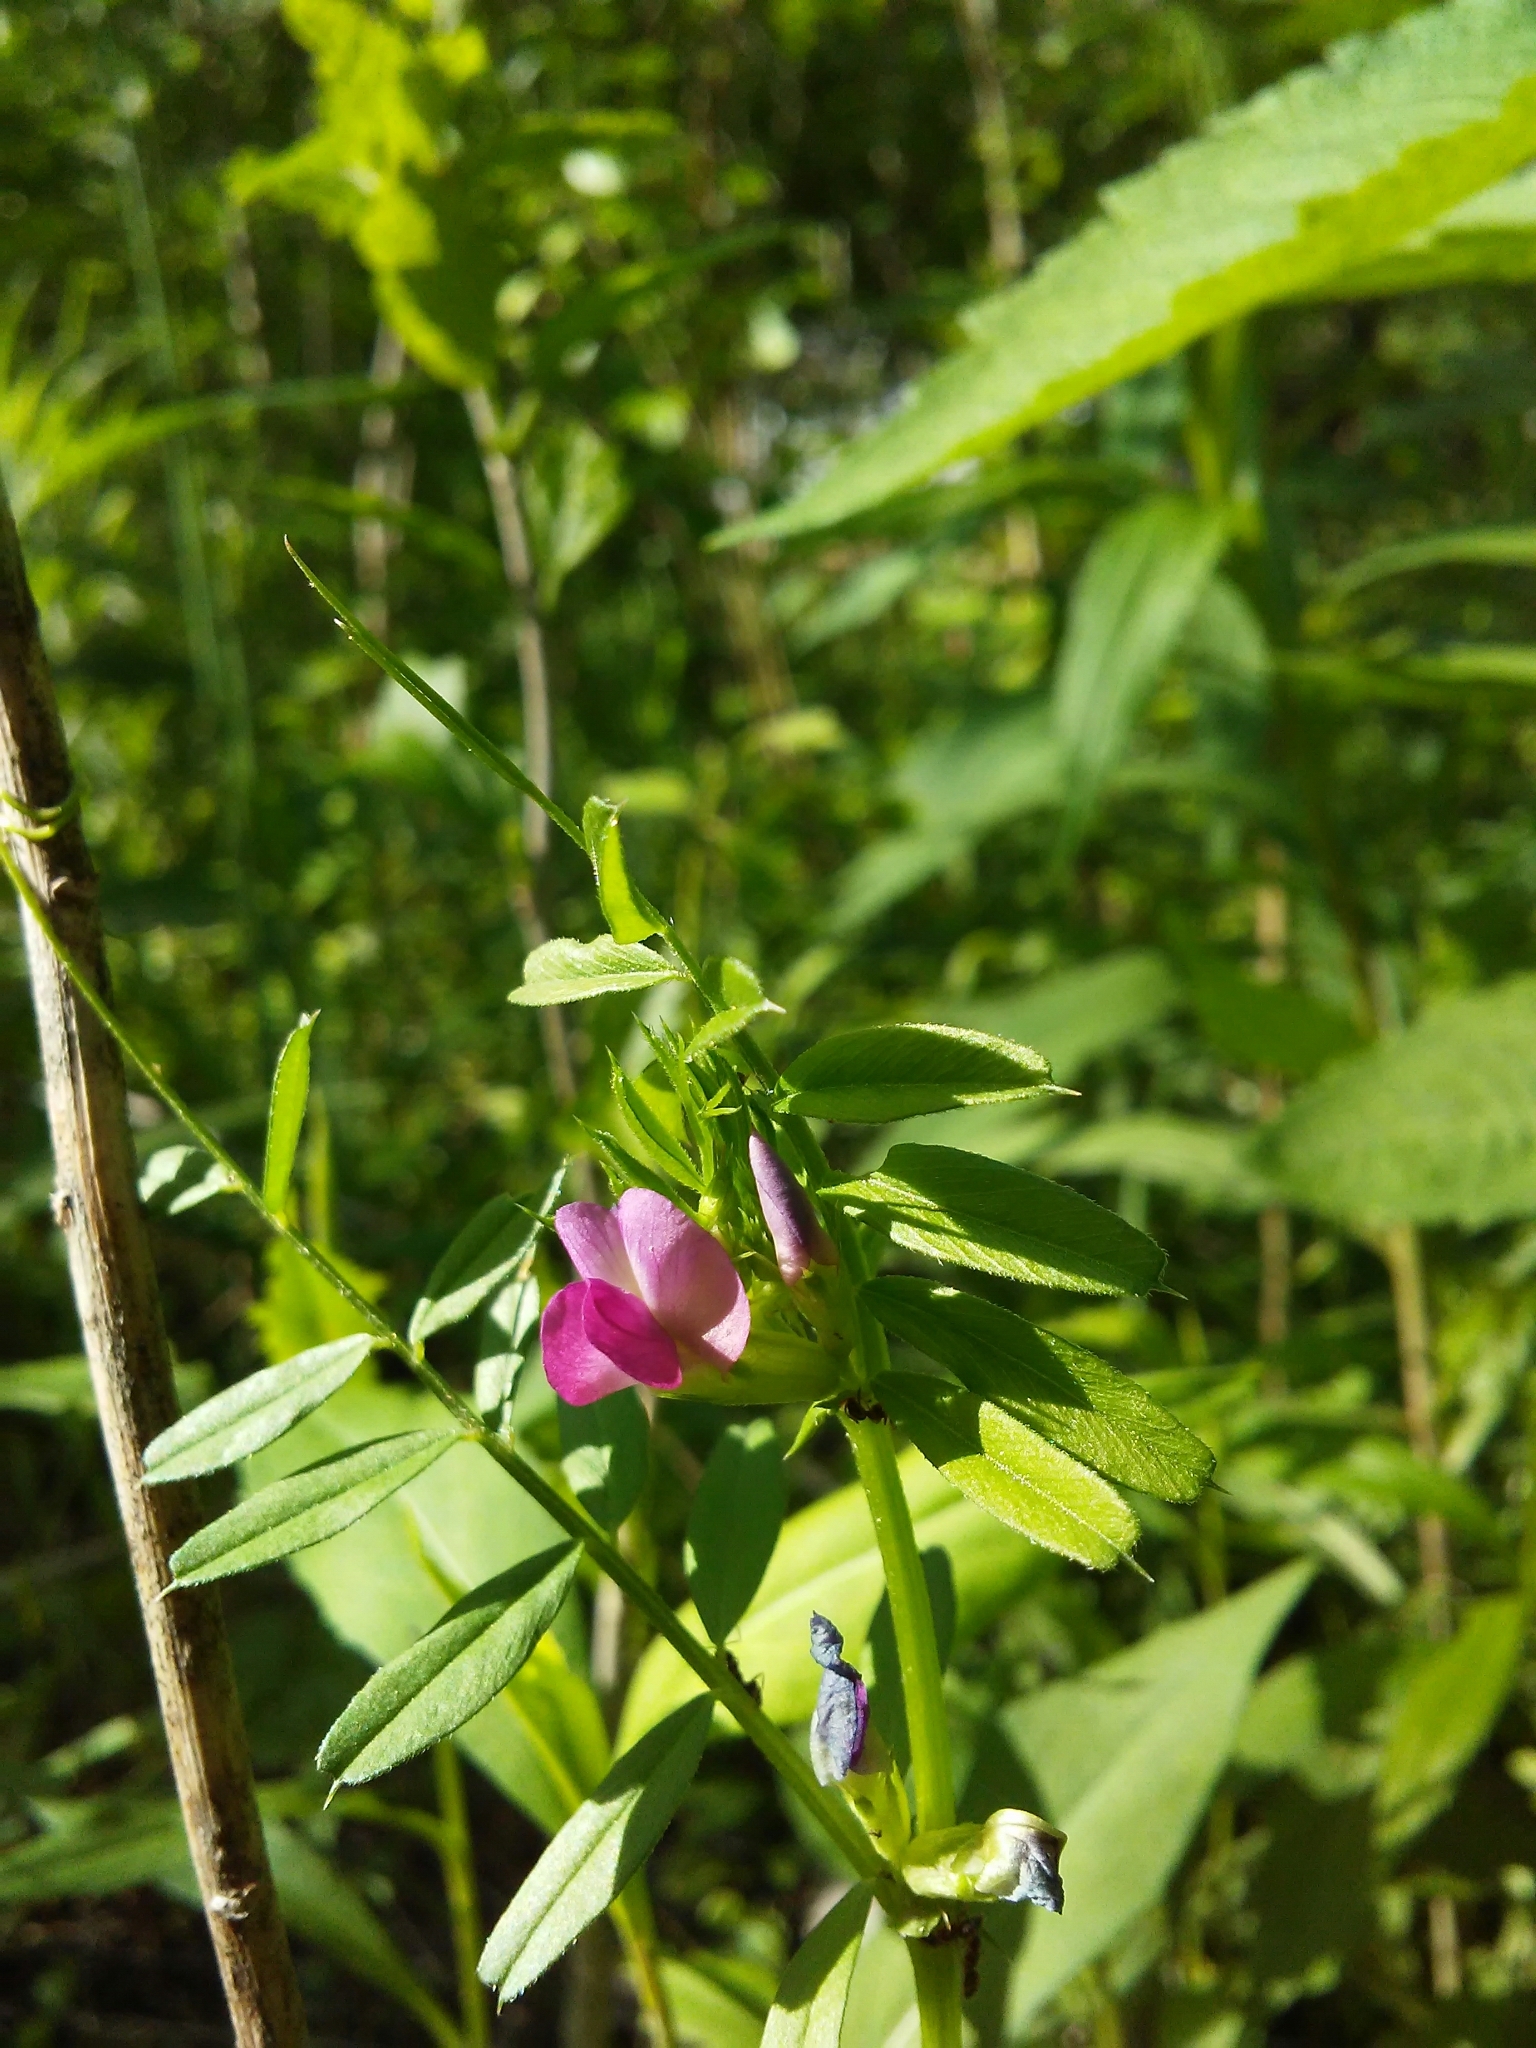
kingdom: Plantae
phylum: Tracheophyta
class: Magnoliopsida
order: Fabales
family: Fabaceae
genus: Vicia
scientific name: Vicia sativa
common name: Garden vetch
